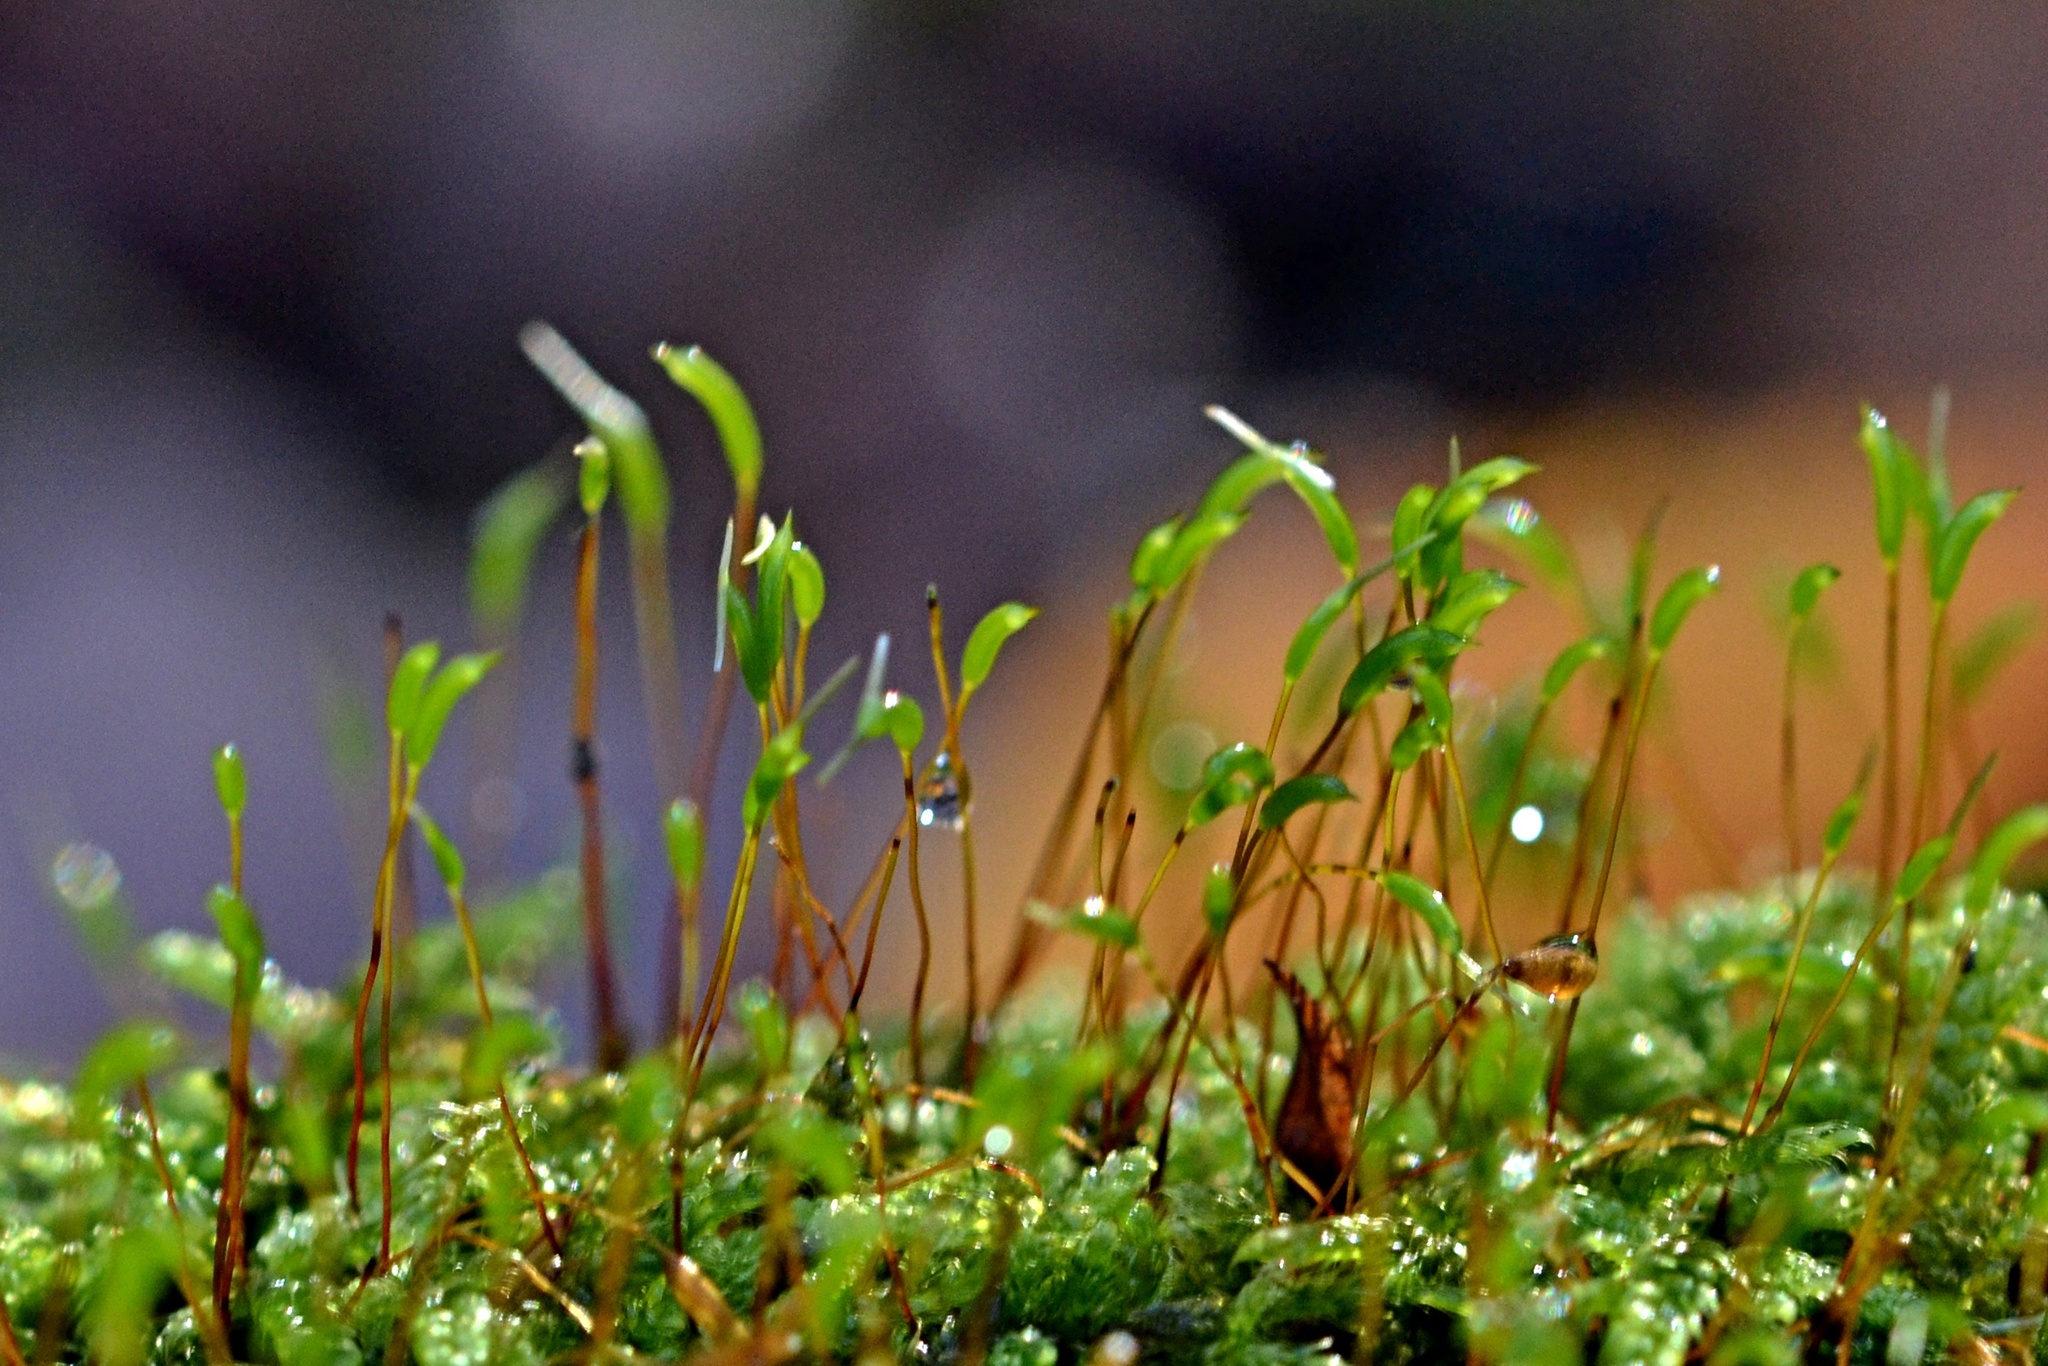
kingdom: Plantae
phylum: Bryophyta
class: Bryopsida
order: Hypnales
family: Hypnaceae
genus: Hypnum
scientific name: Hypnum cupressiforme
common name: Cypress-leaved plait-moss
